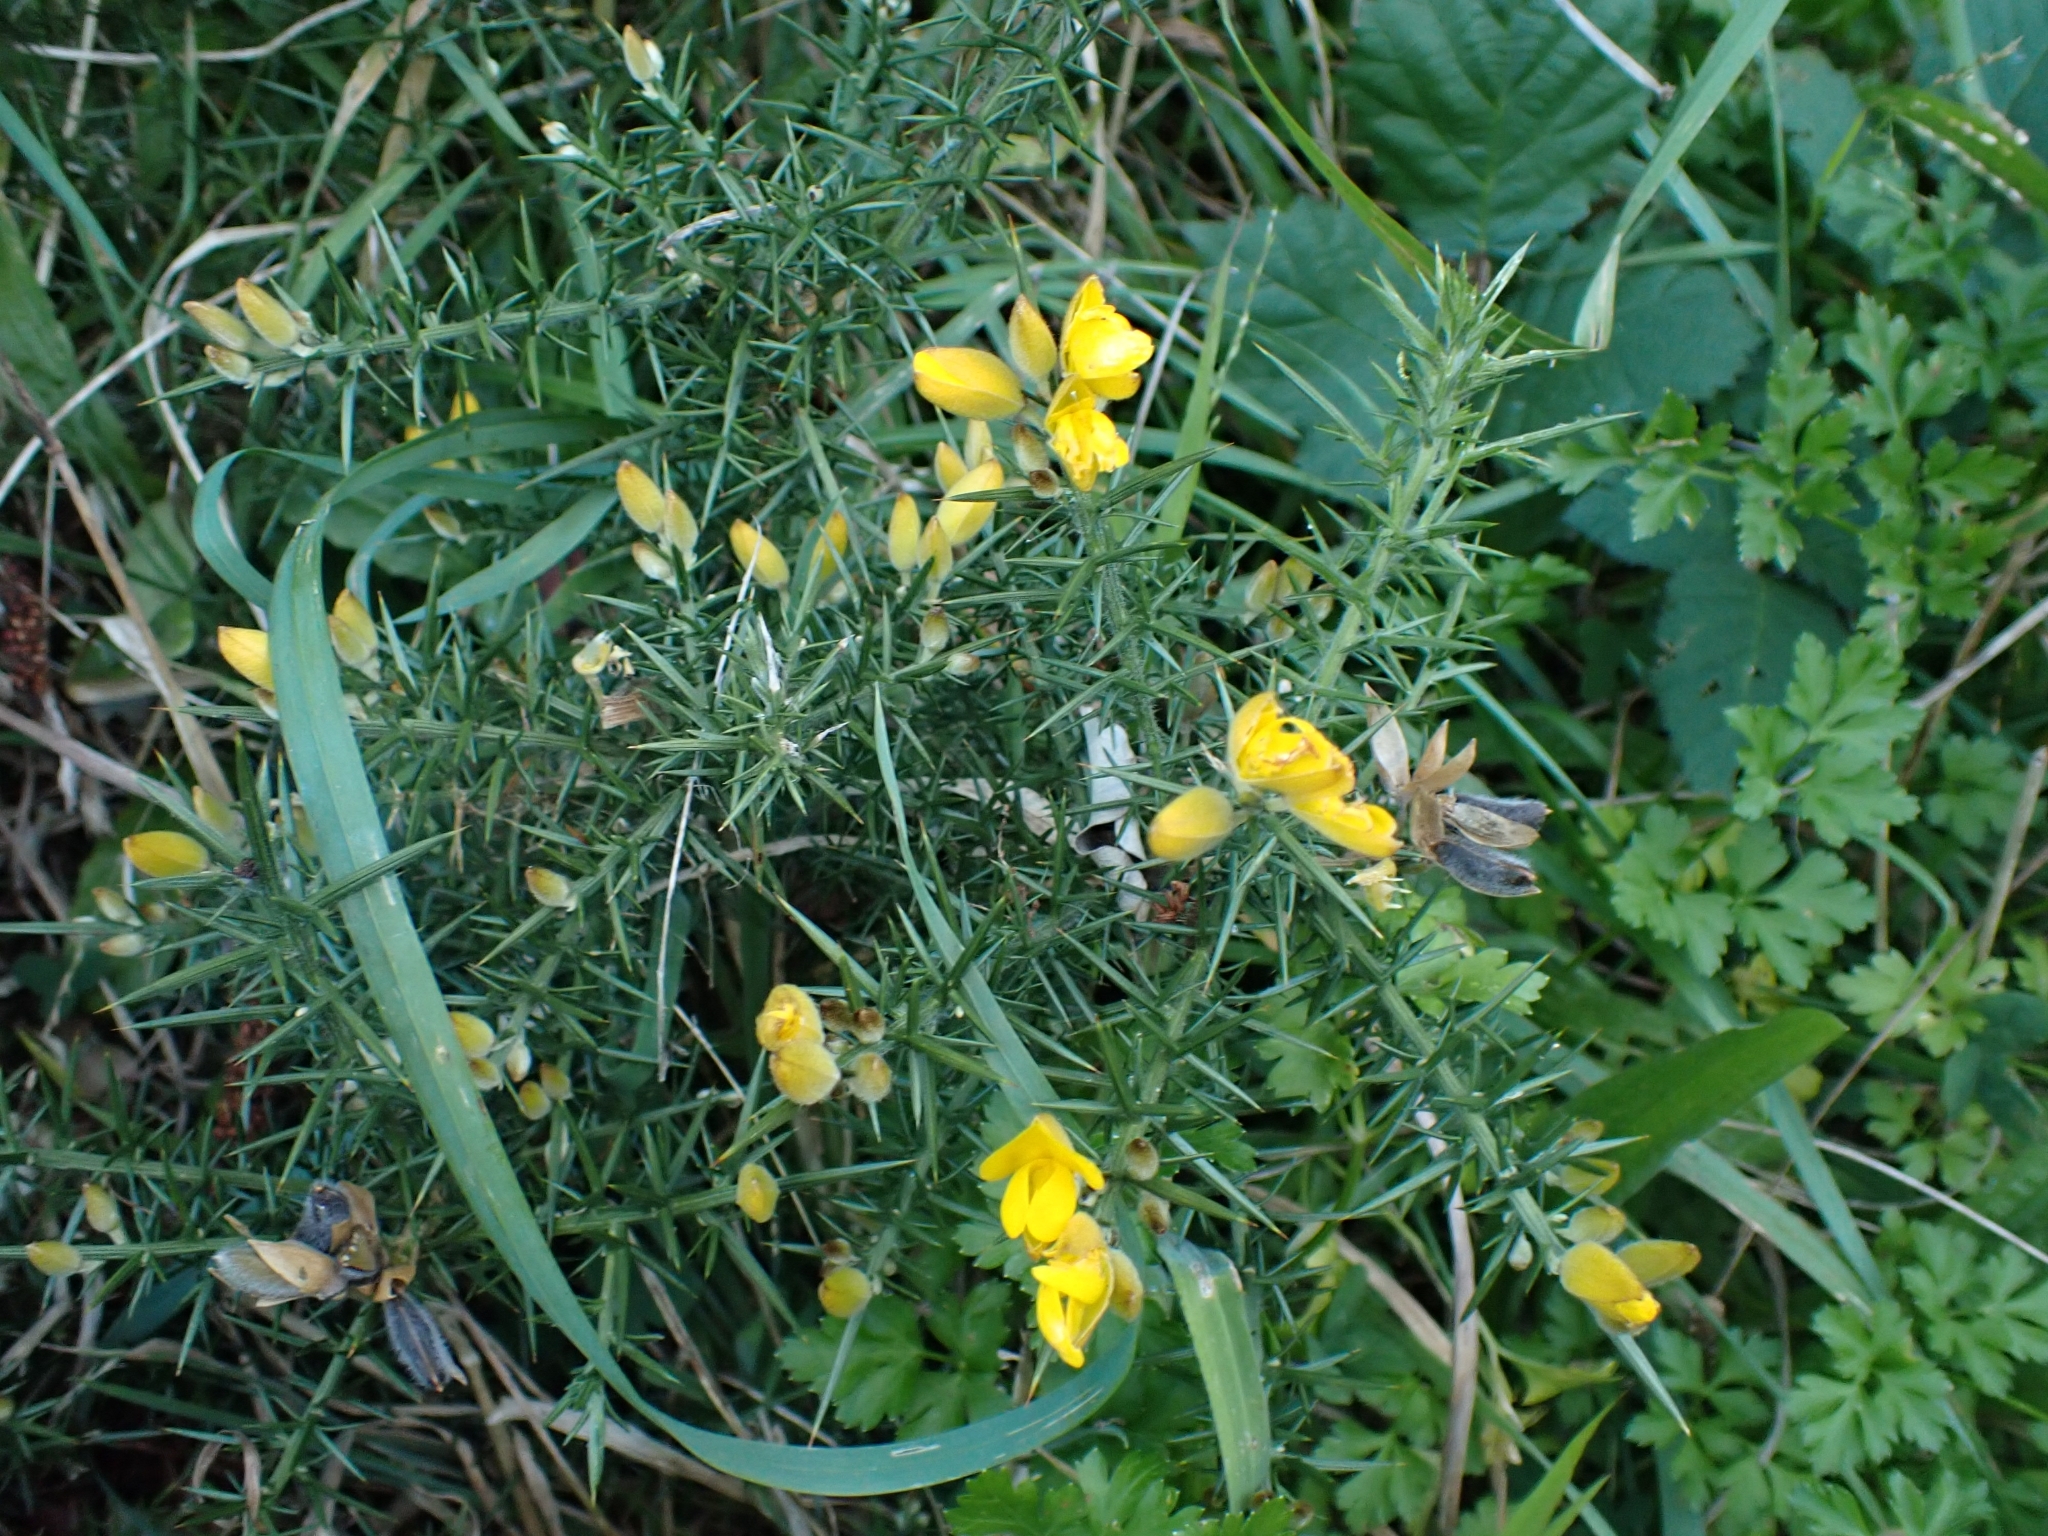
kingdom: Plantae
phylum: Tracheophyta
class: Magnoliopsida
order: Fabales
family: Fabaceae
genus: Ulex
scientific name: Ulex europaeus
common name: Common gorse
